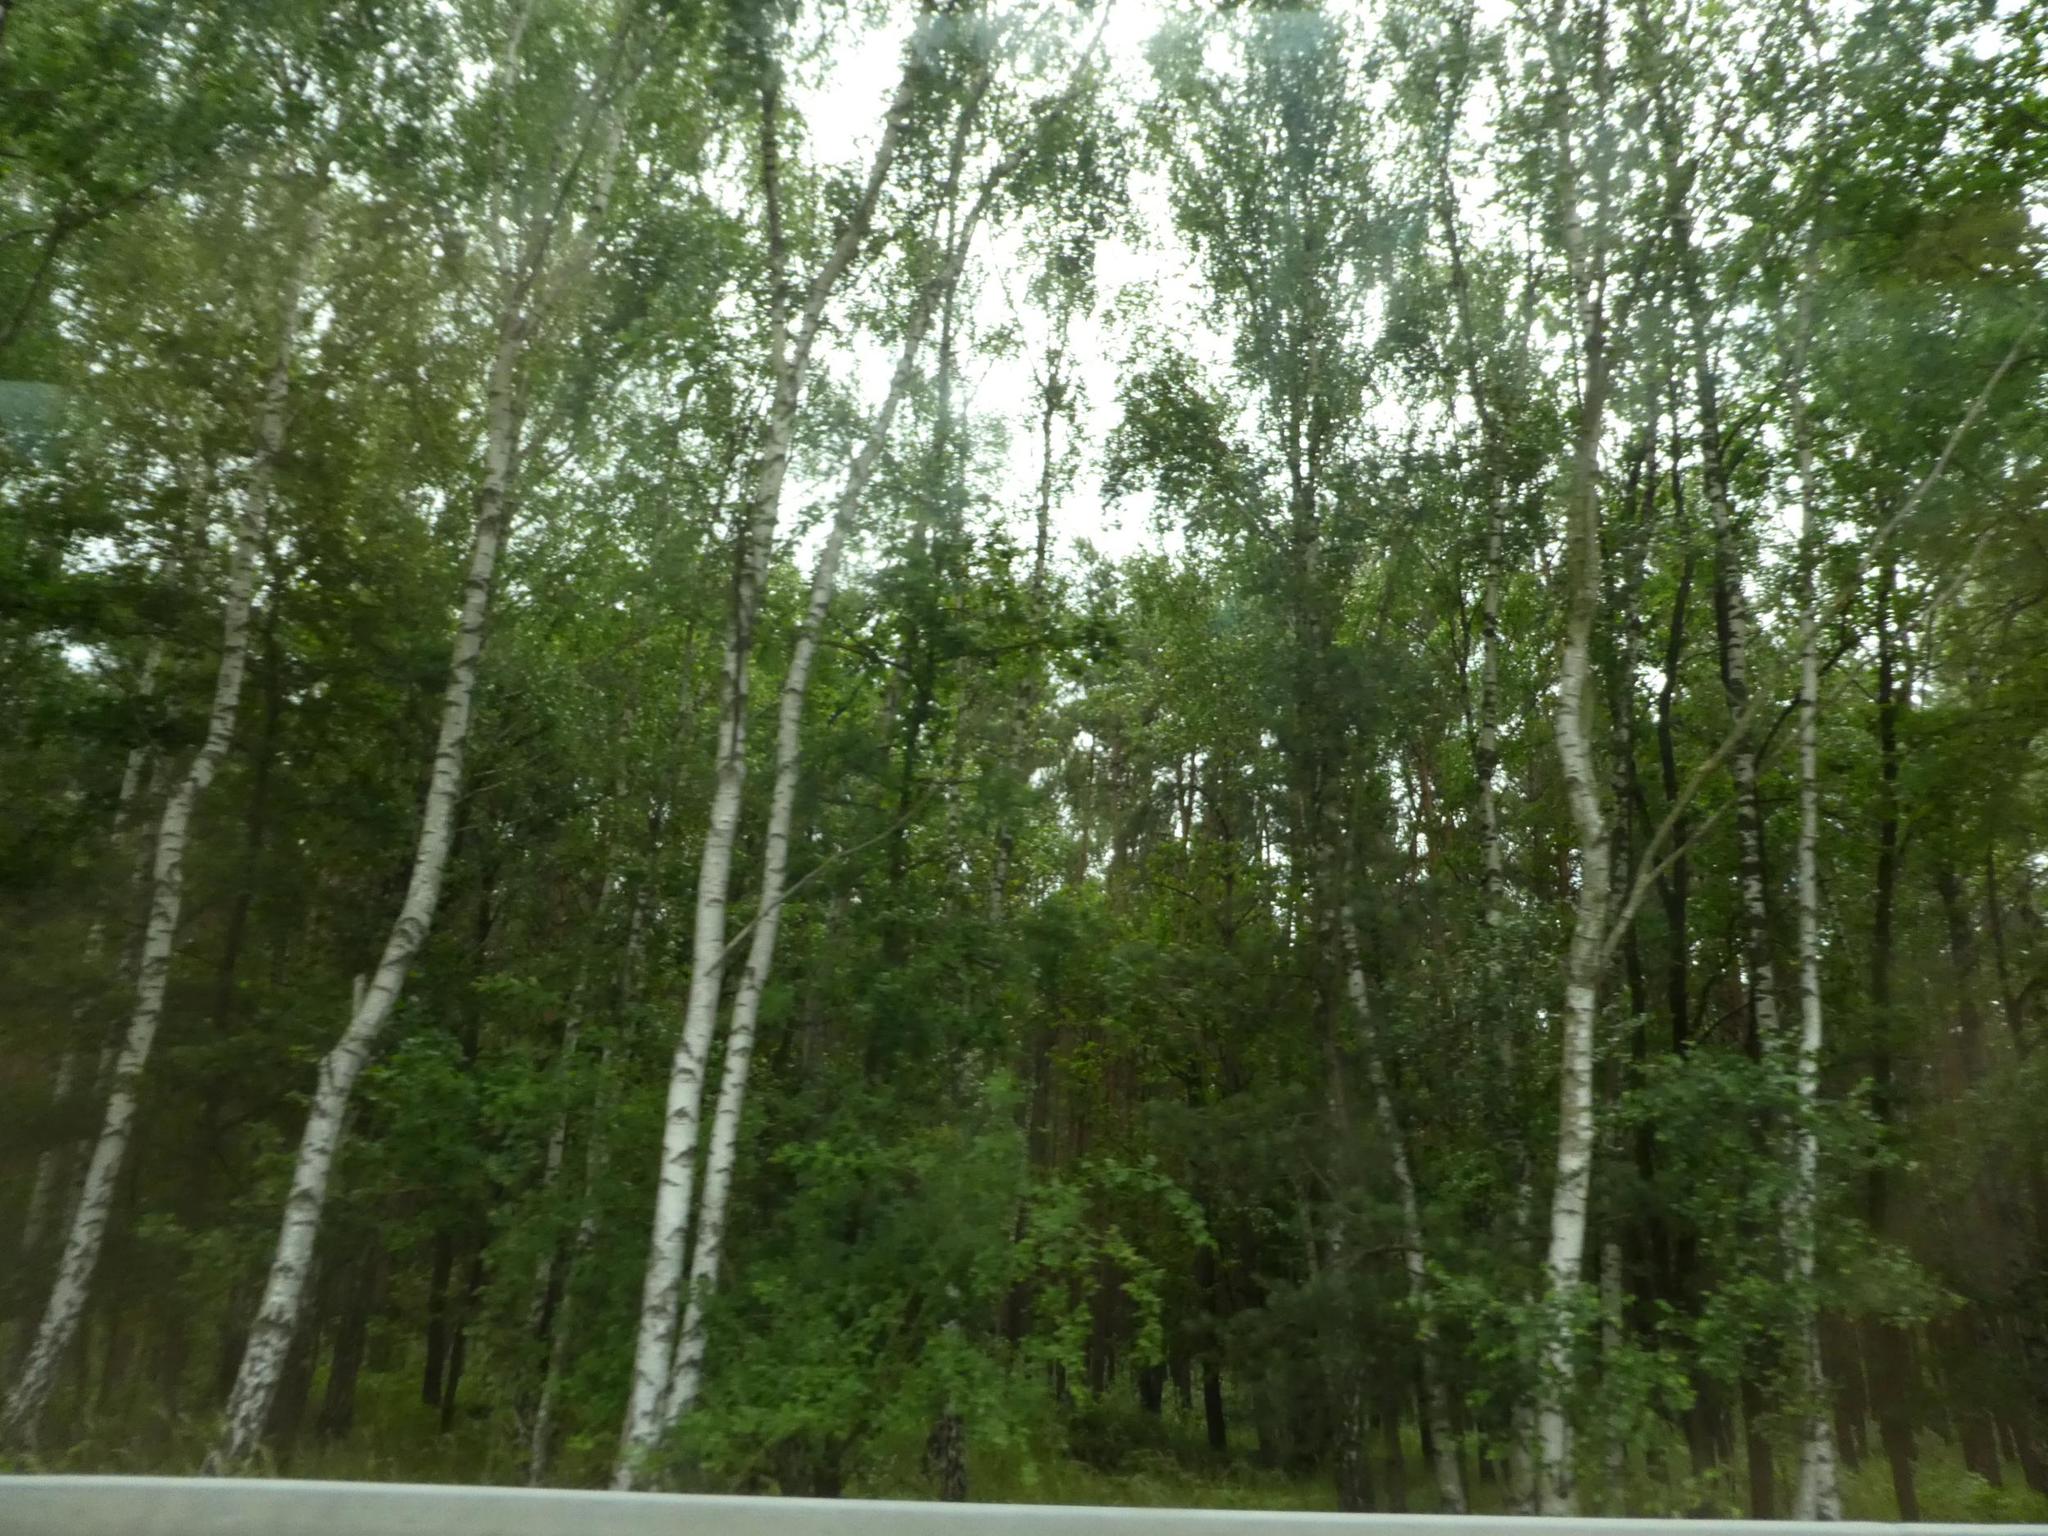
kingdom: Plantae
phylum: Tracheophyta
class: Magnoliopsida
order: Fagales
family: Betulaceae
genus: Betula
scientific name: Betula pendula
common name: Silver birch
